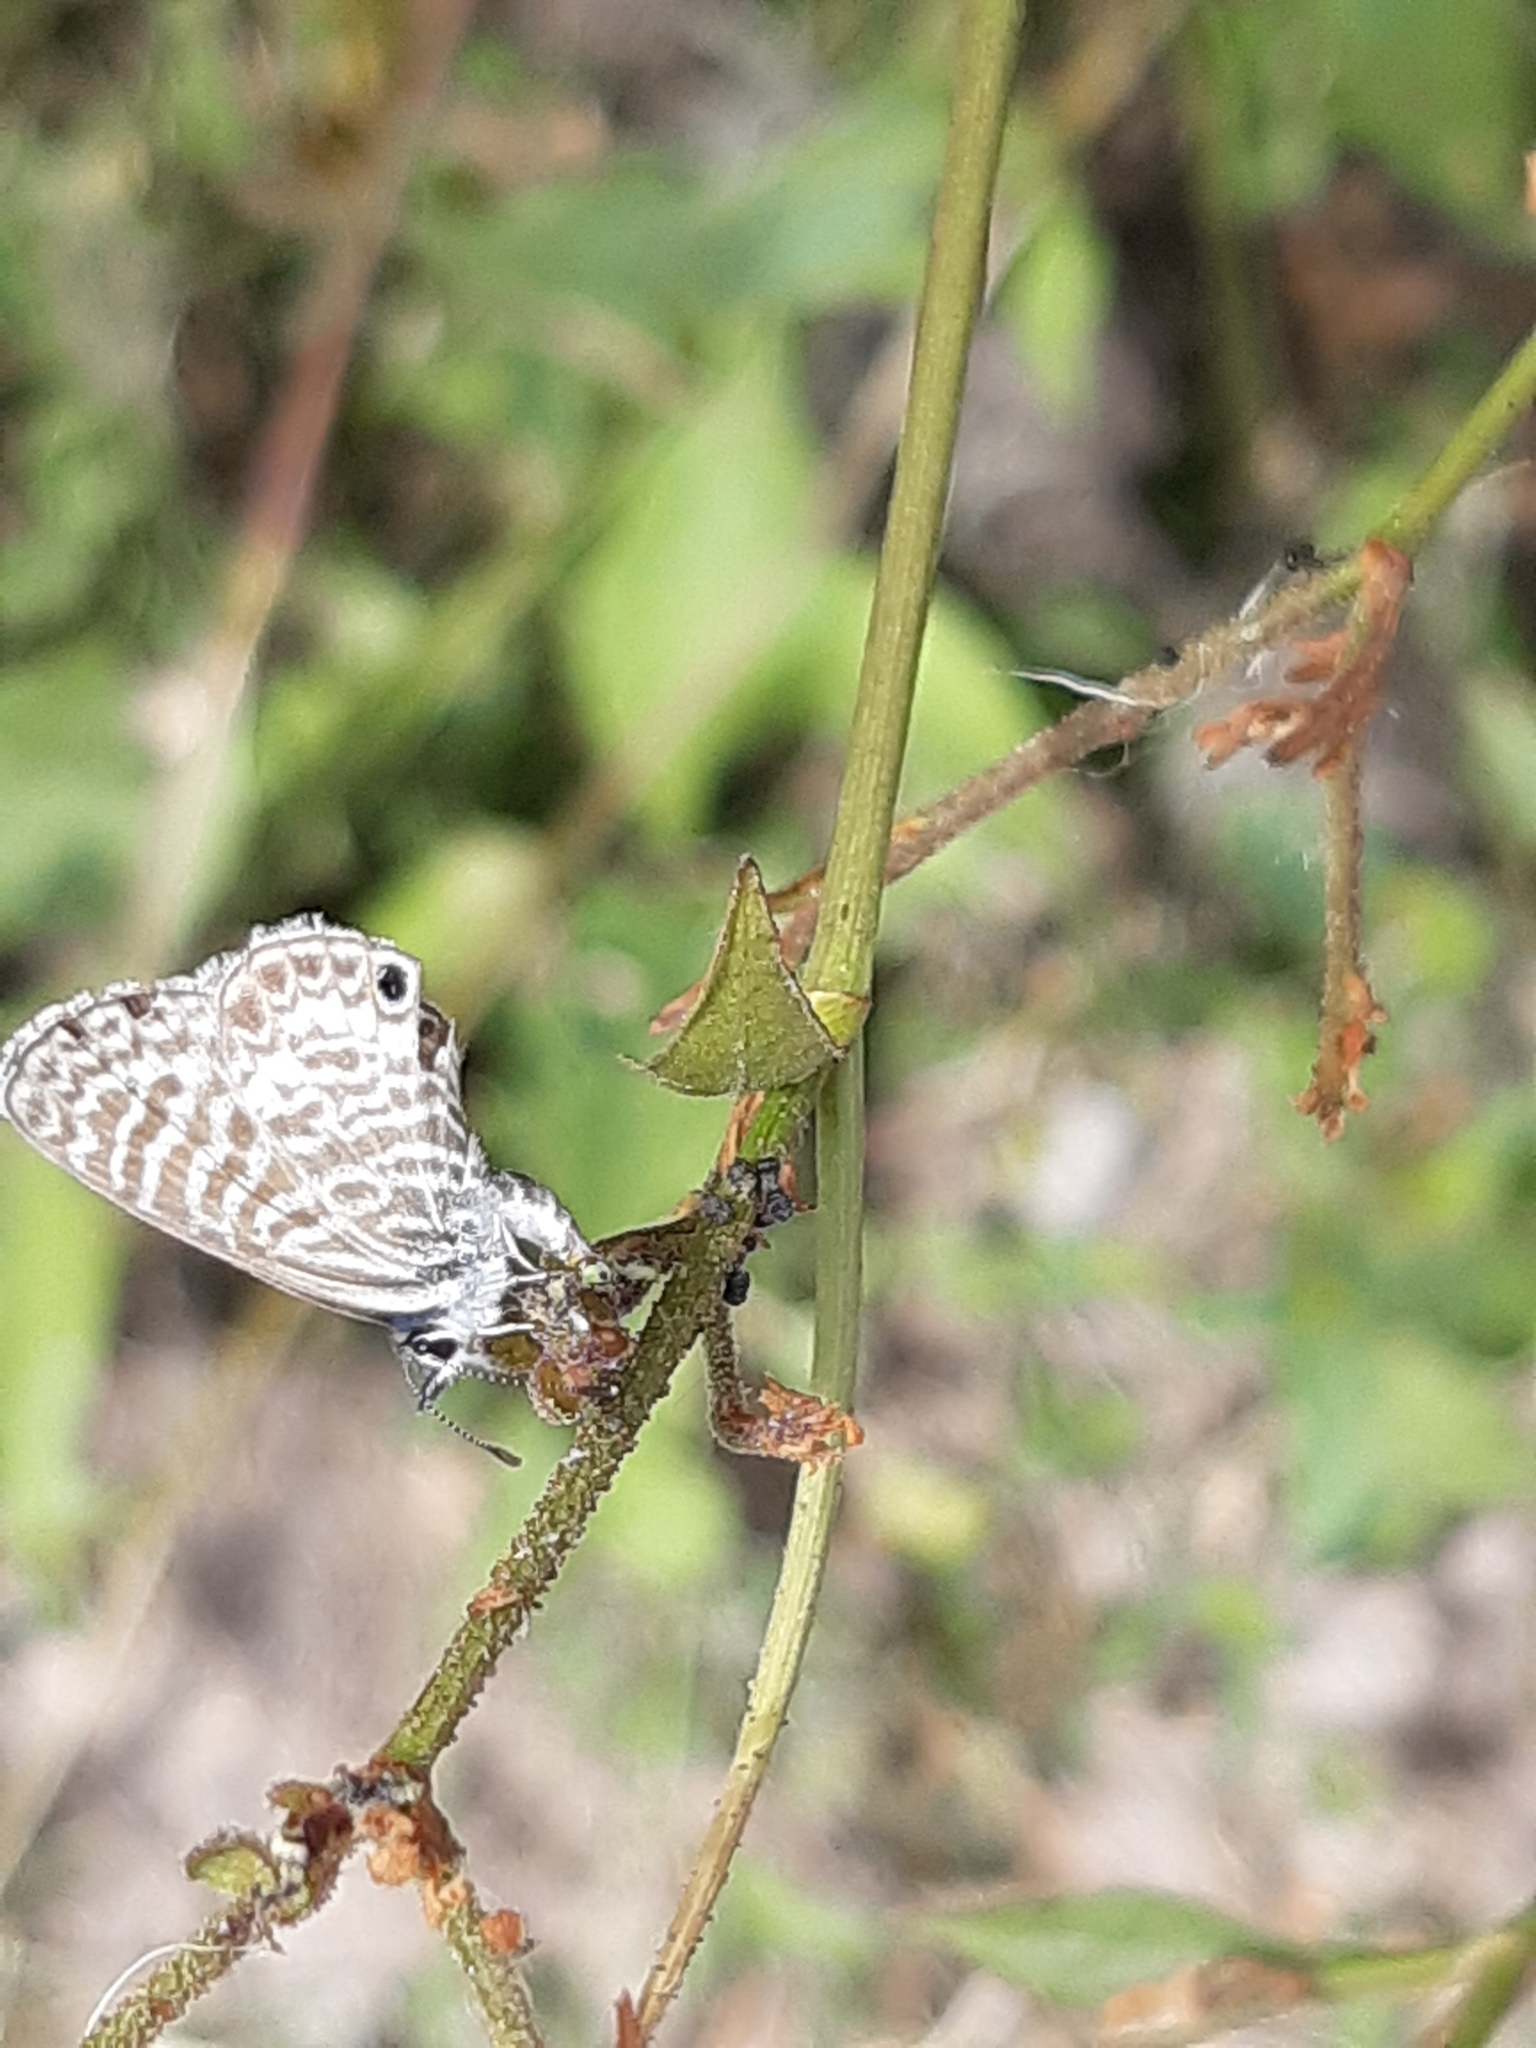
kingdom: Animalia
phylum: Arthropoda
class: Insecta
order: Lepidoptera
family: Lycaenidae
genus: Leptotes
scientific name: Leptotes marina
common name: Marine blue
